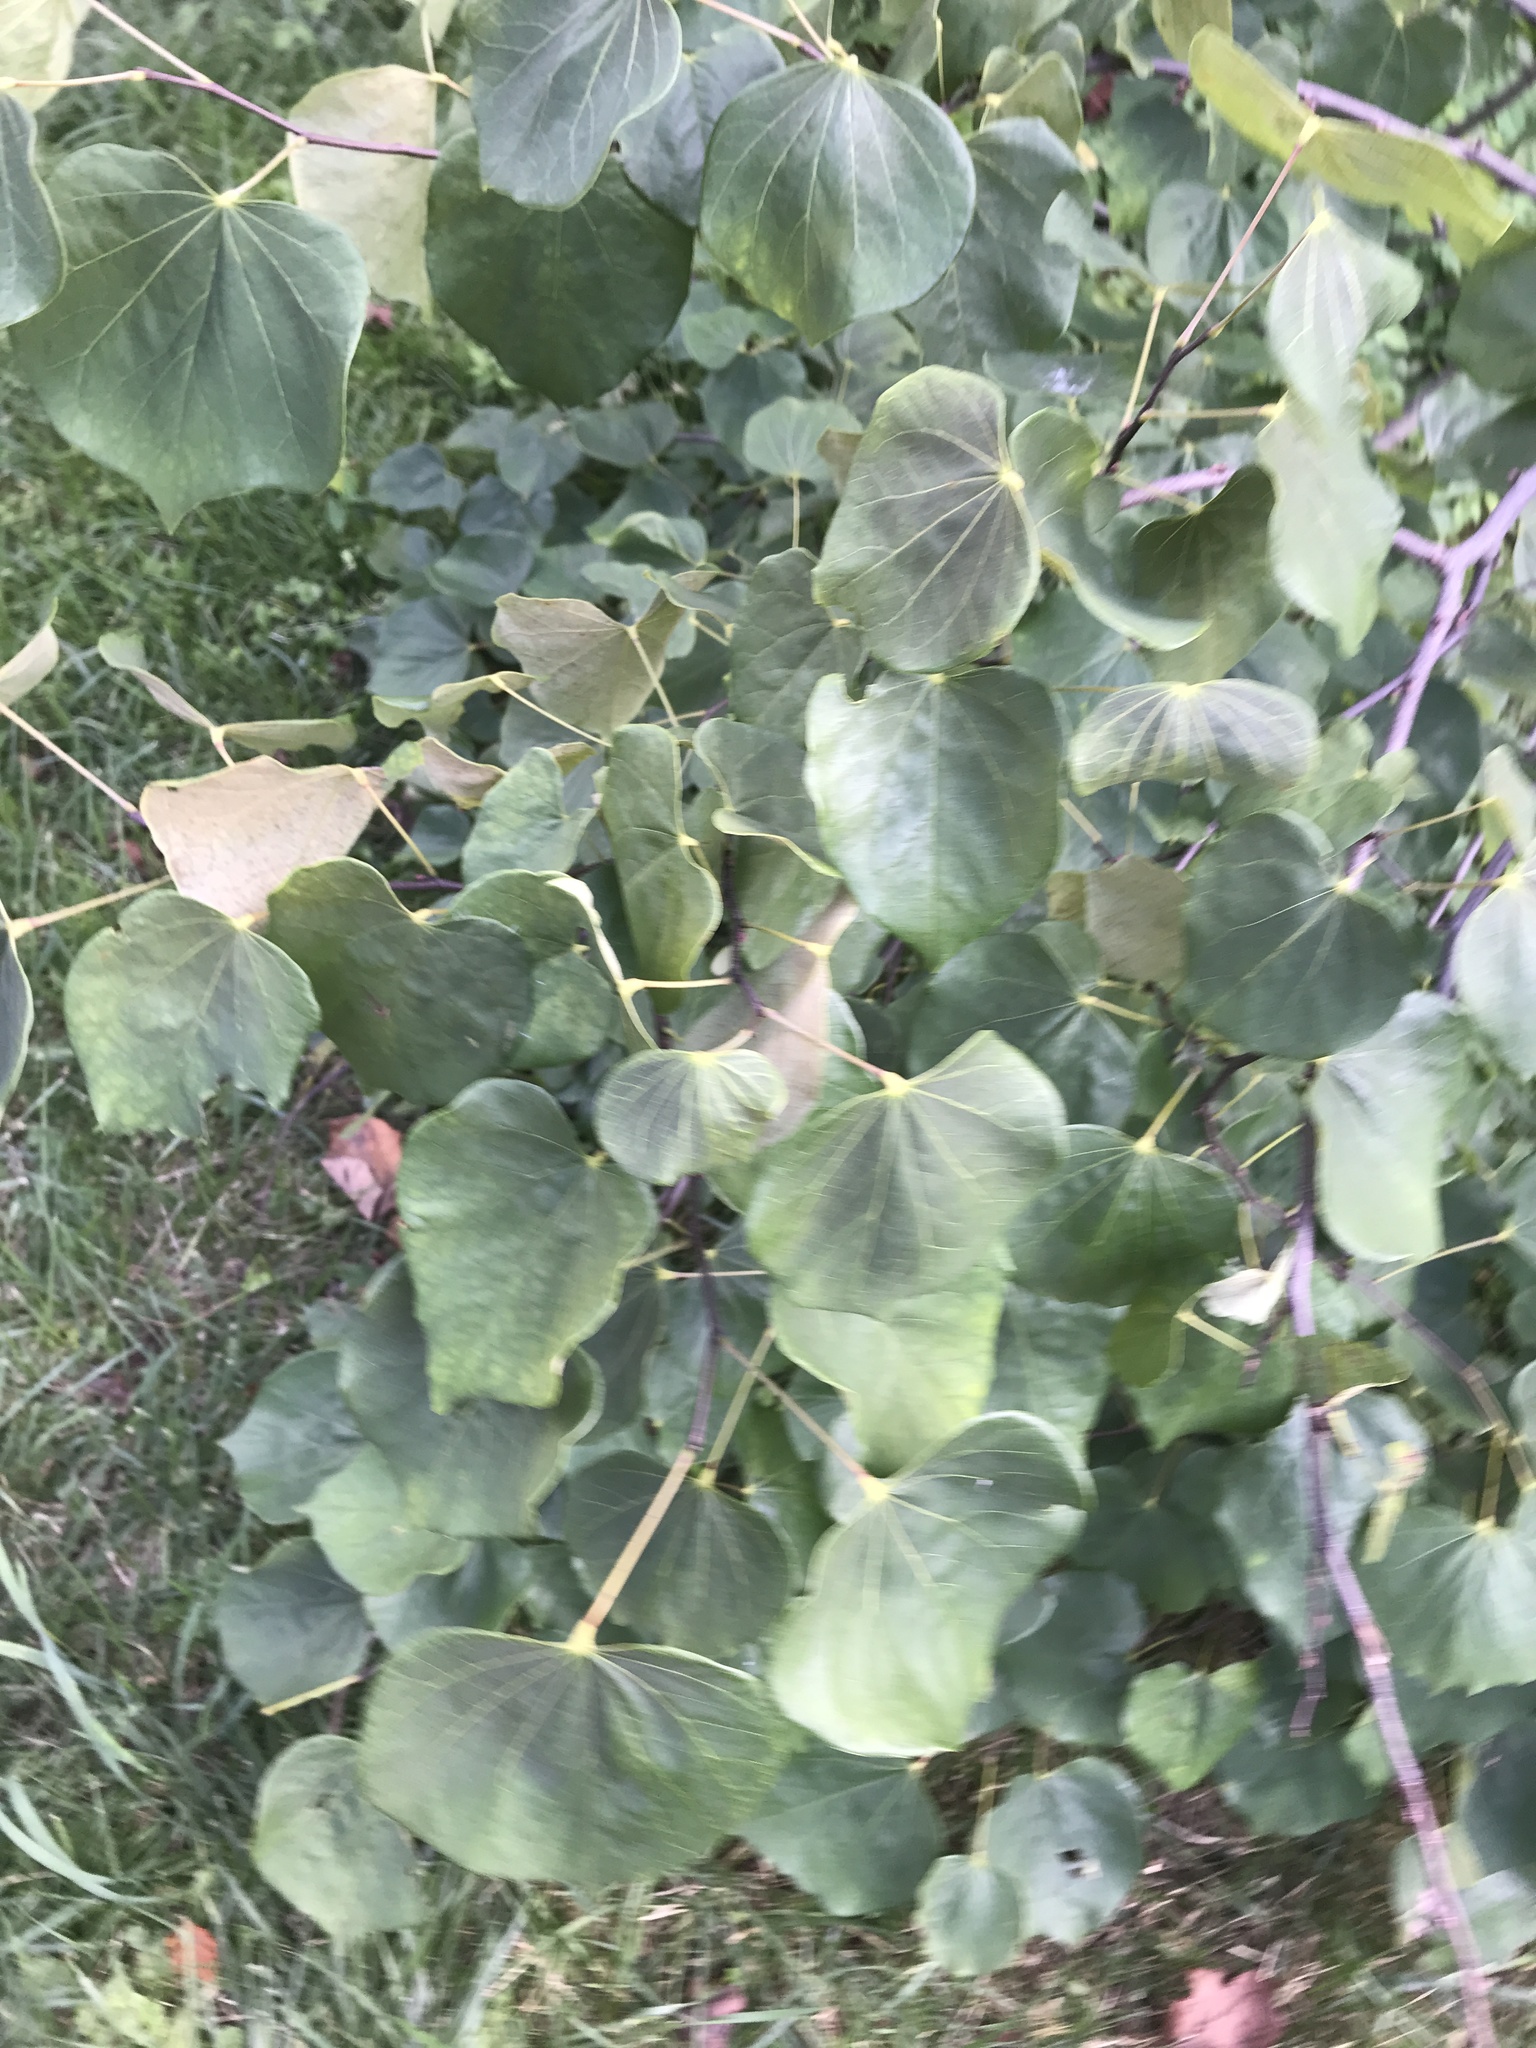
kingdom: Plantae
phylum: Tracheophyta
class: Magnoliopsida
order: Fabales
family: Fabaceae
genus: Cercis
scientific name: Cercis canadensis
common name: Eastern redbud
